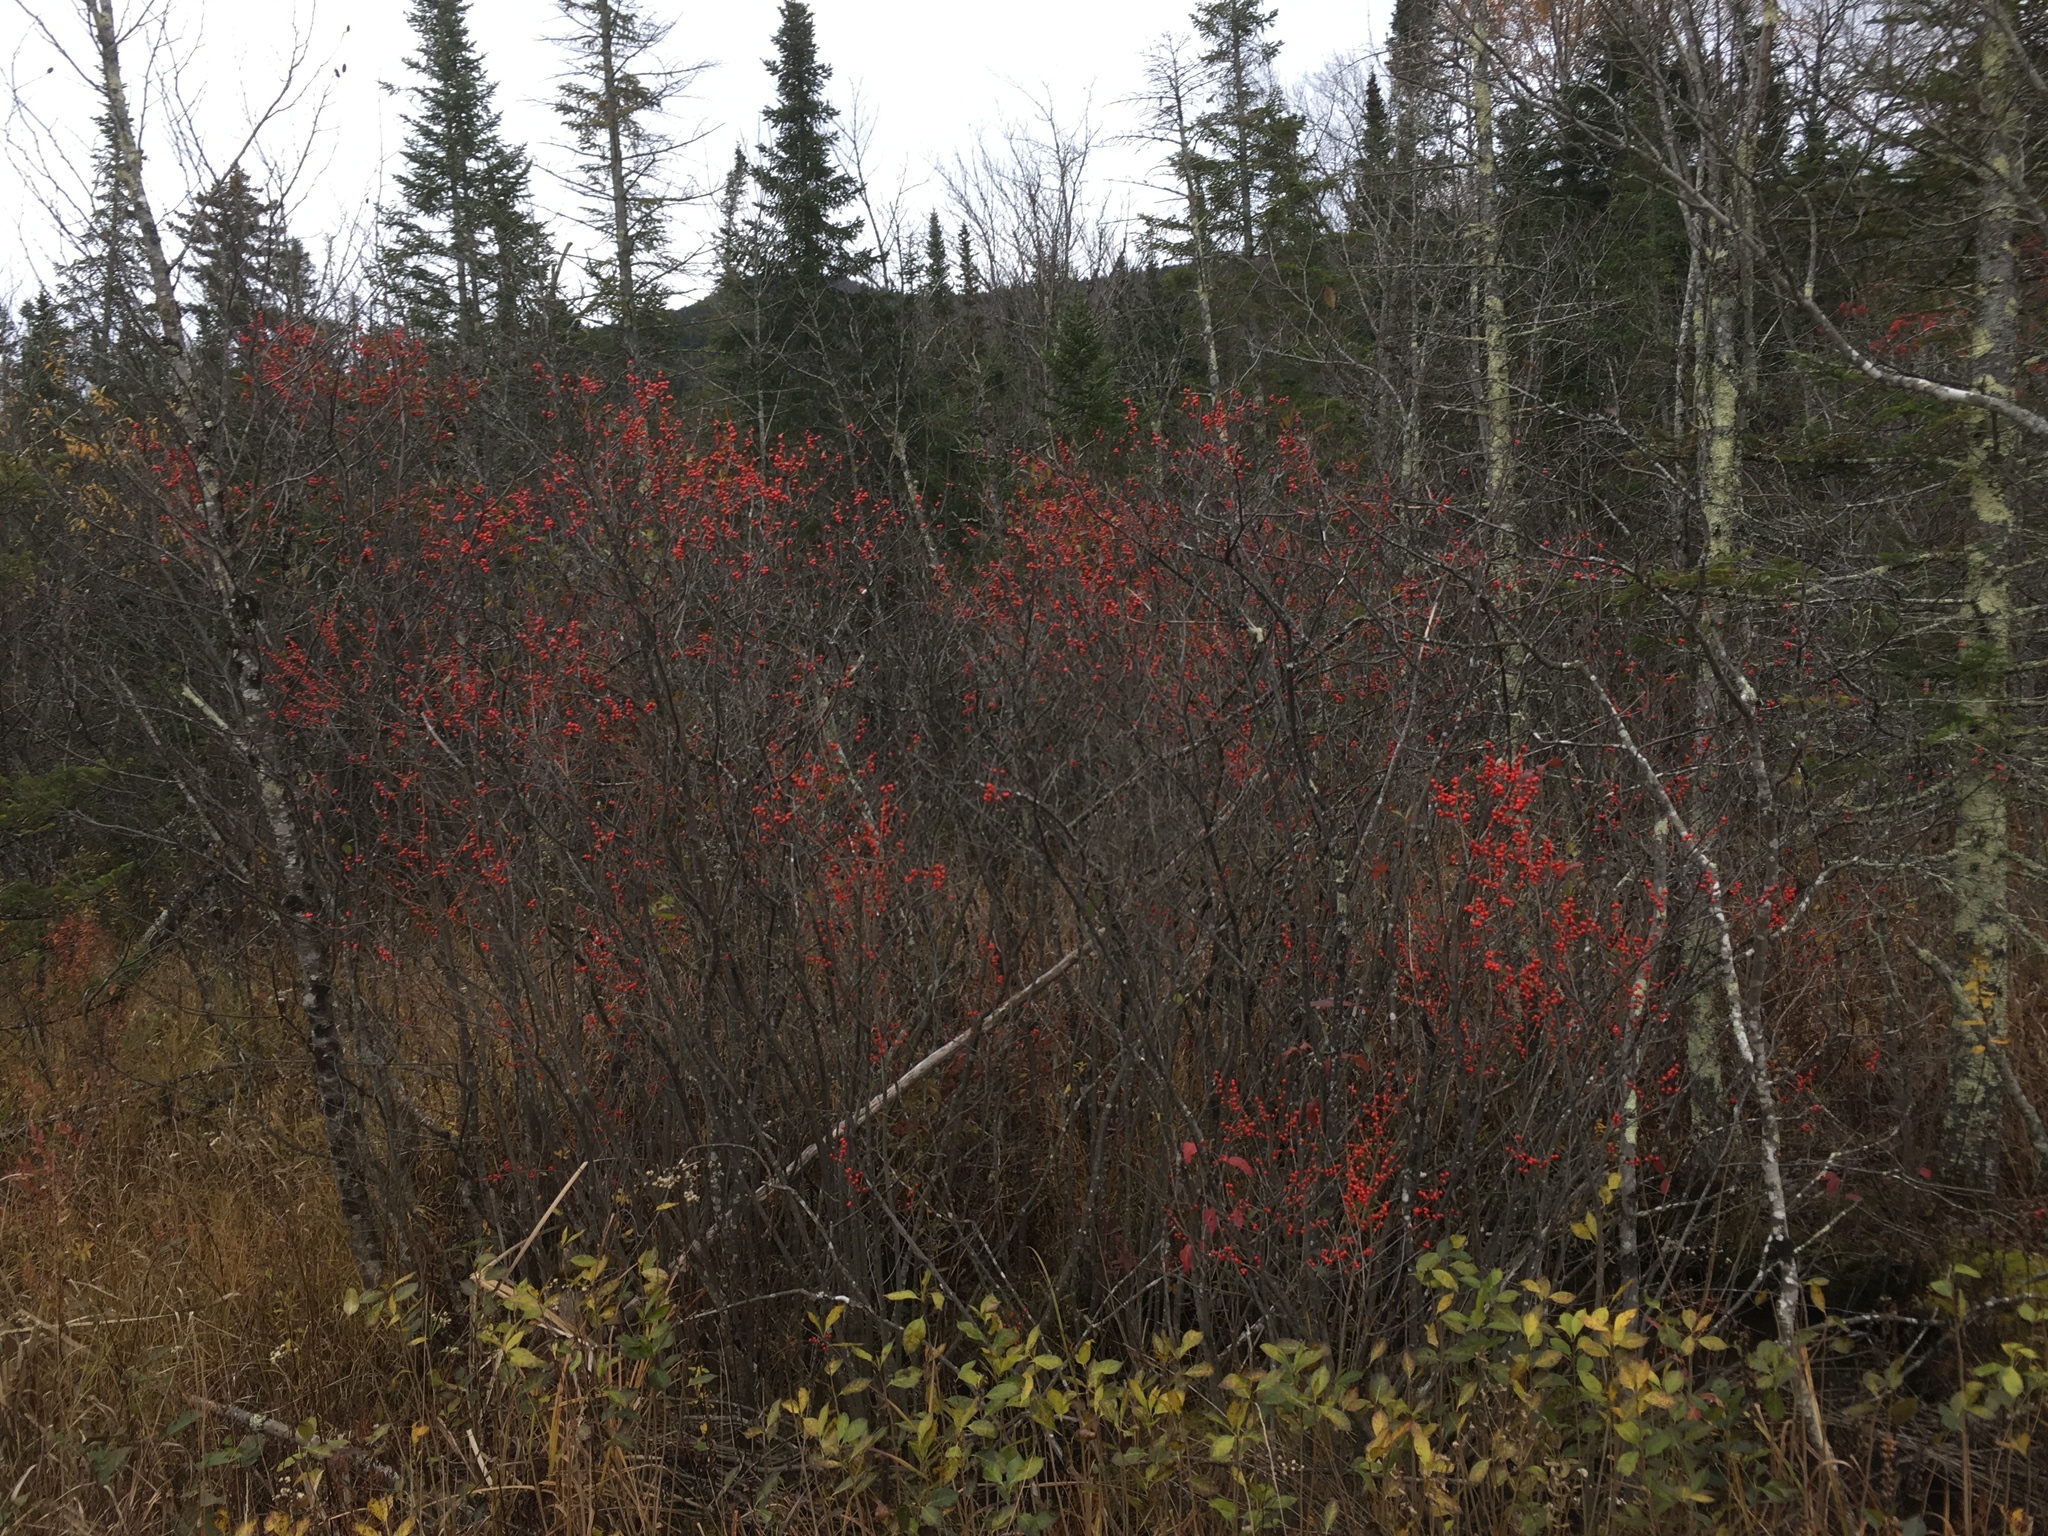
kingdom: Plantae
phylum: Tracheophyta
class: Magnoliopsida
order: Aquifoliales
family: Aquifoliaceae
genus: Ilex
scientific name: Ilex verticillata
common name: Virginia winterberry
